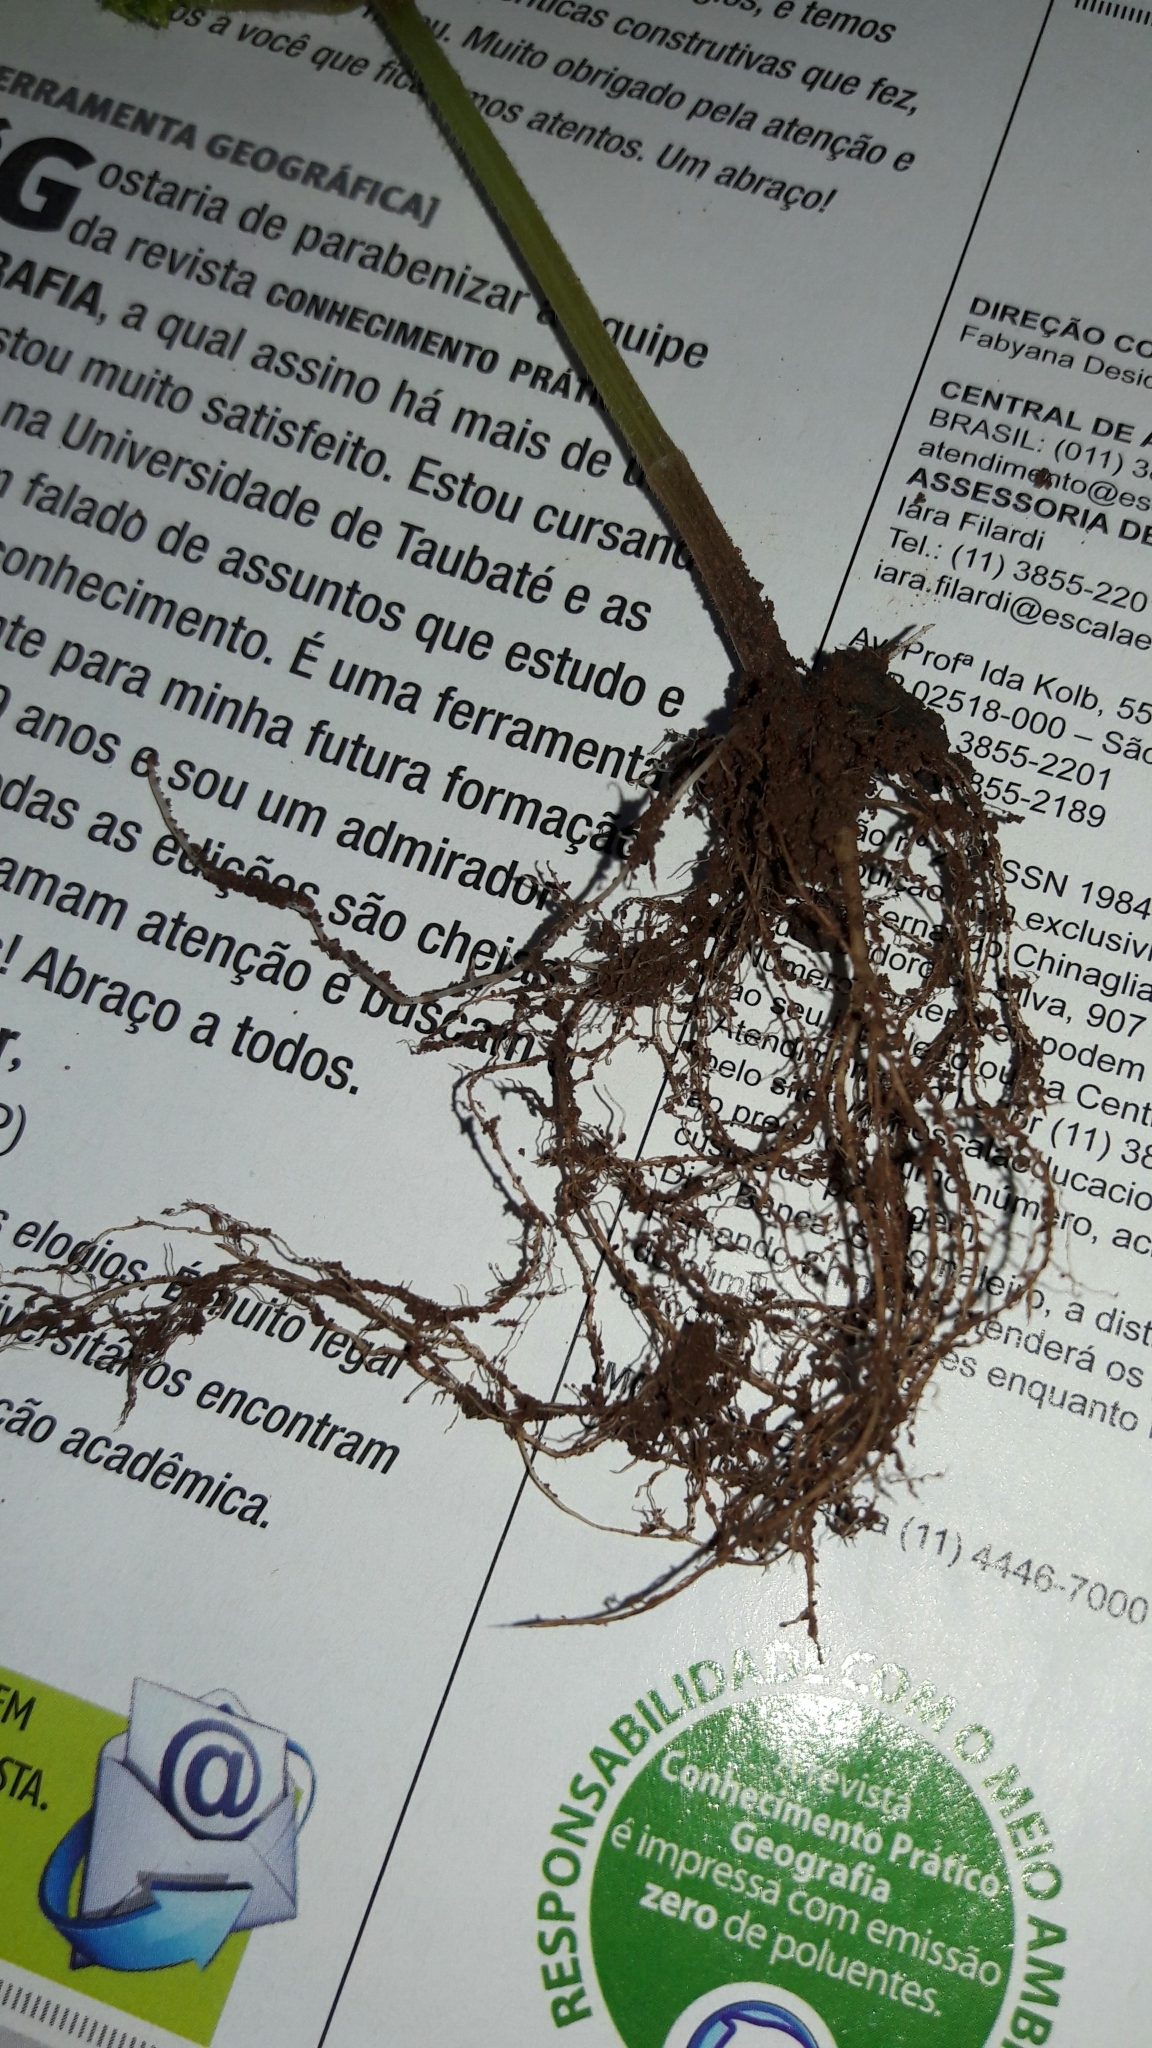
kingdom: Plantae
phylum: Tracheophyta
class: Magnoliopsida
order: Rosales
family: Urticaceae
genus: Boehmeria
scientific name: Boehmeria cylindrica
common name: Bog-hemp
